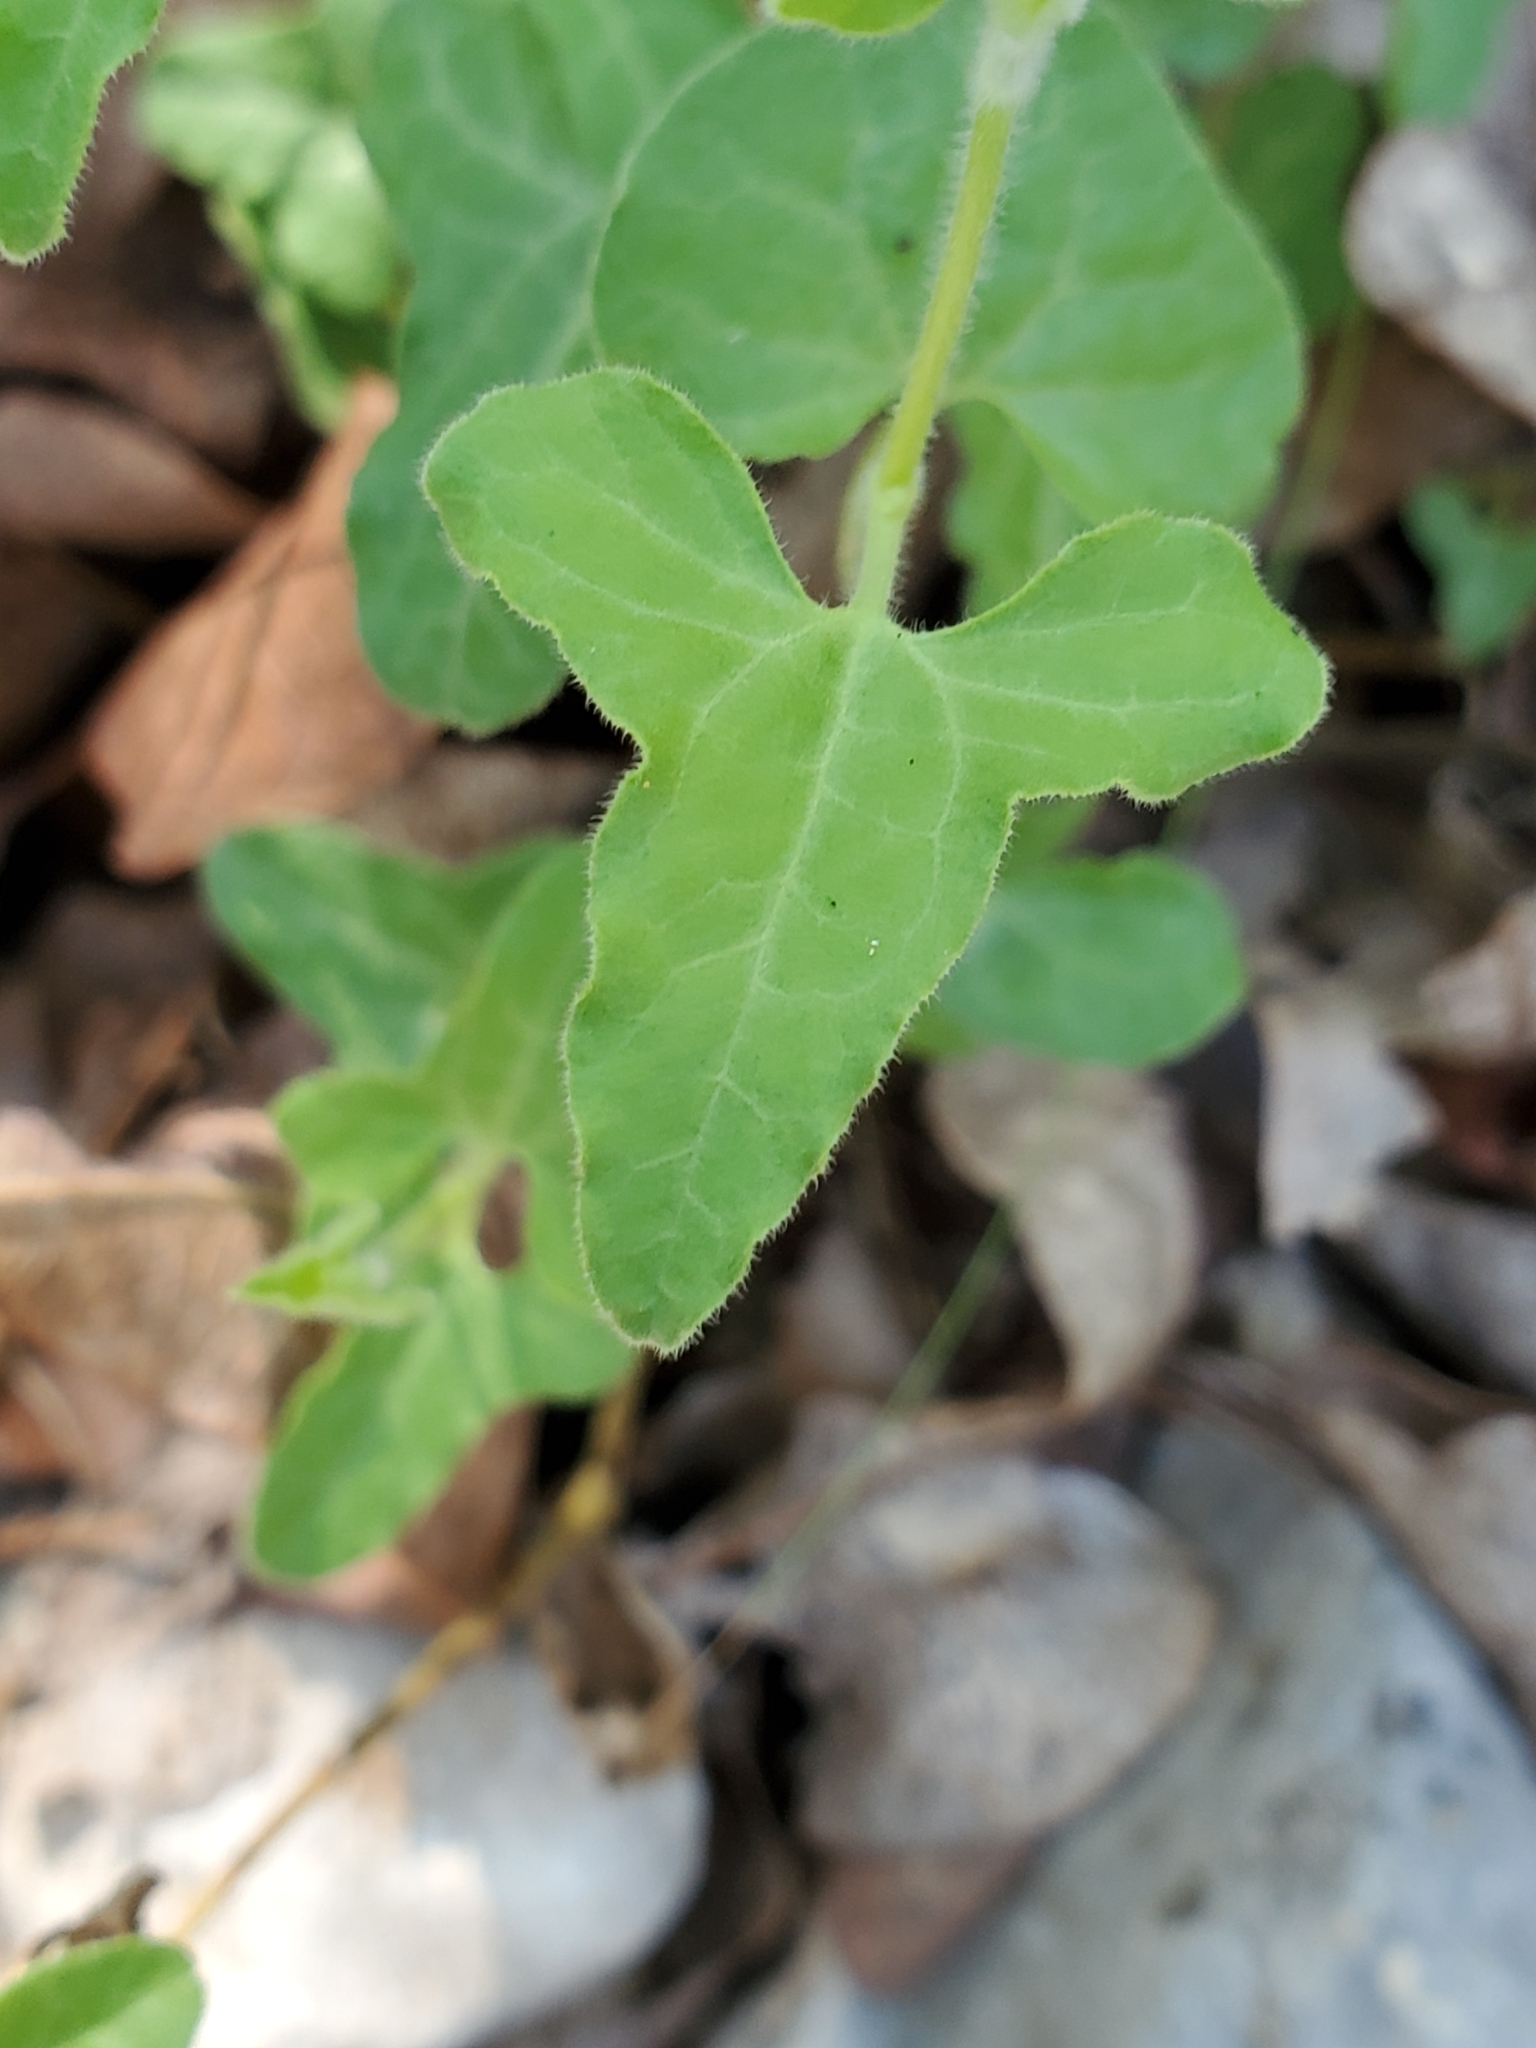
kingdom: Plantae
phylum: Tracheophyta
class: Magnoliopsida
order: Piperales
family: Aristolochiaceae
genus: Aristolochia
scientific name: Aristolochia coryi
